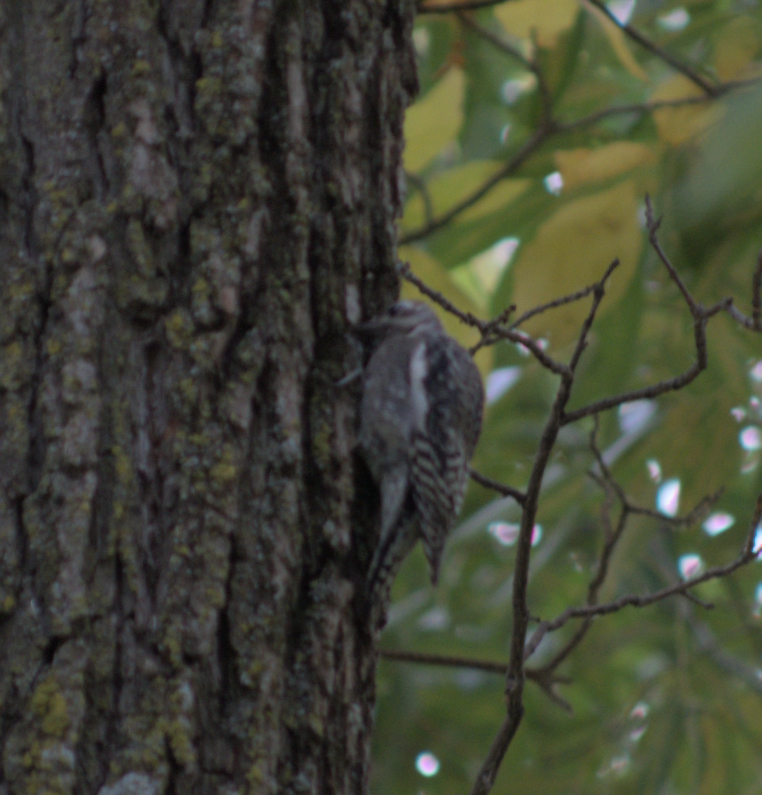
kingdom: Animalia
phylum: Chordata
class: Aves
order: Piciformes
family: Picidae
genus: Sphyrapicus
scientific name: Sphyrapicus varius
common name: Yellow-bellied sapsucker
